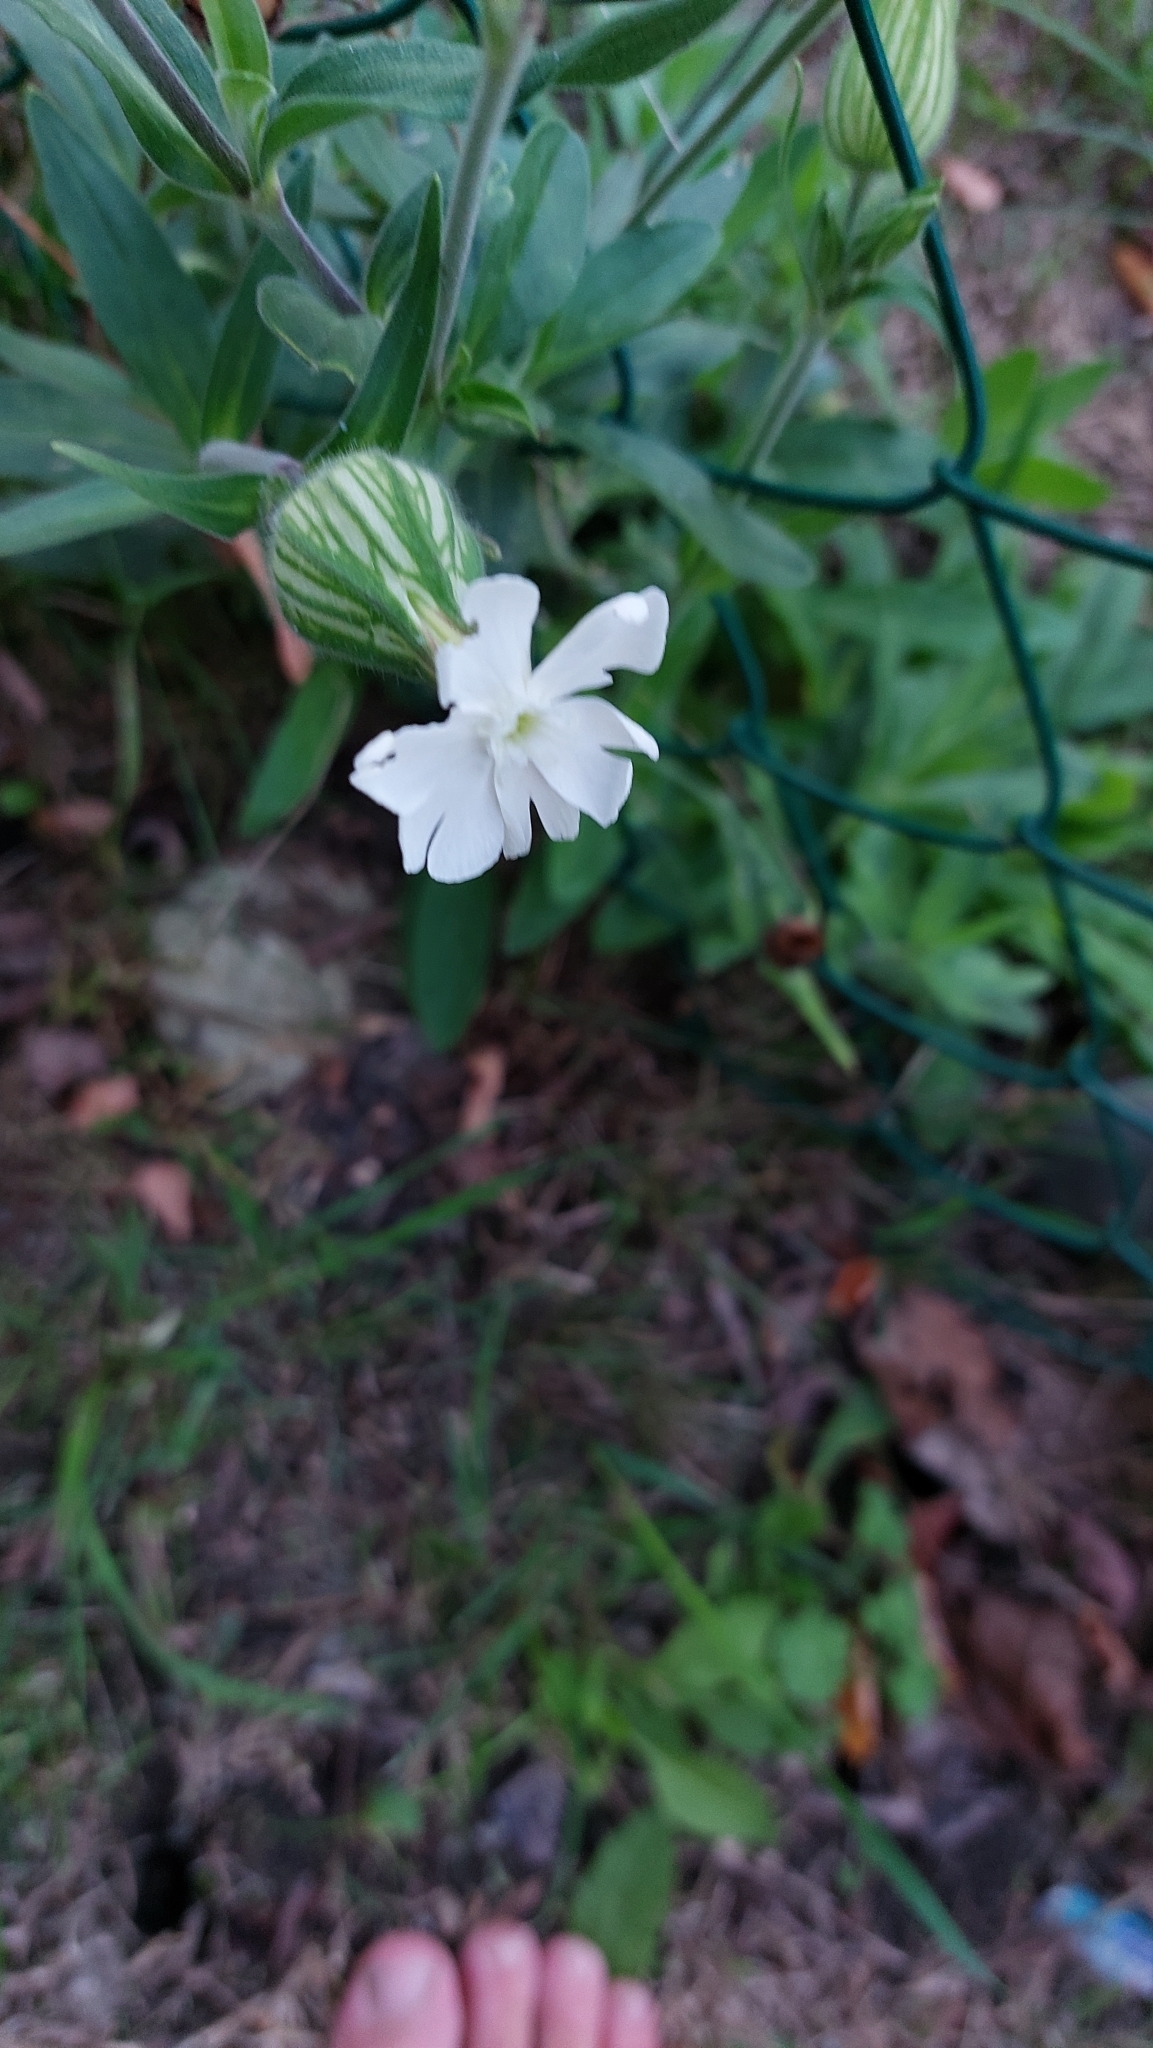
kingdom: Plantae
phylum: Tracheophyta
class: Magnoliopsida
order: Caryophyllales
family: Caryophyllaceae
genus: Silene
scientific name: Silene latifolia
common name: White campion
